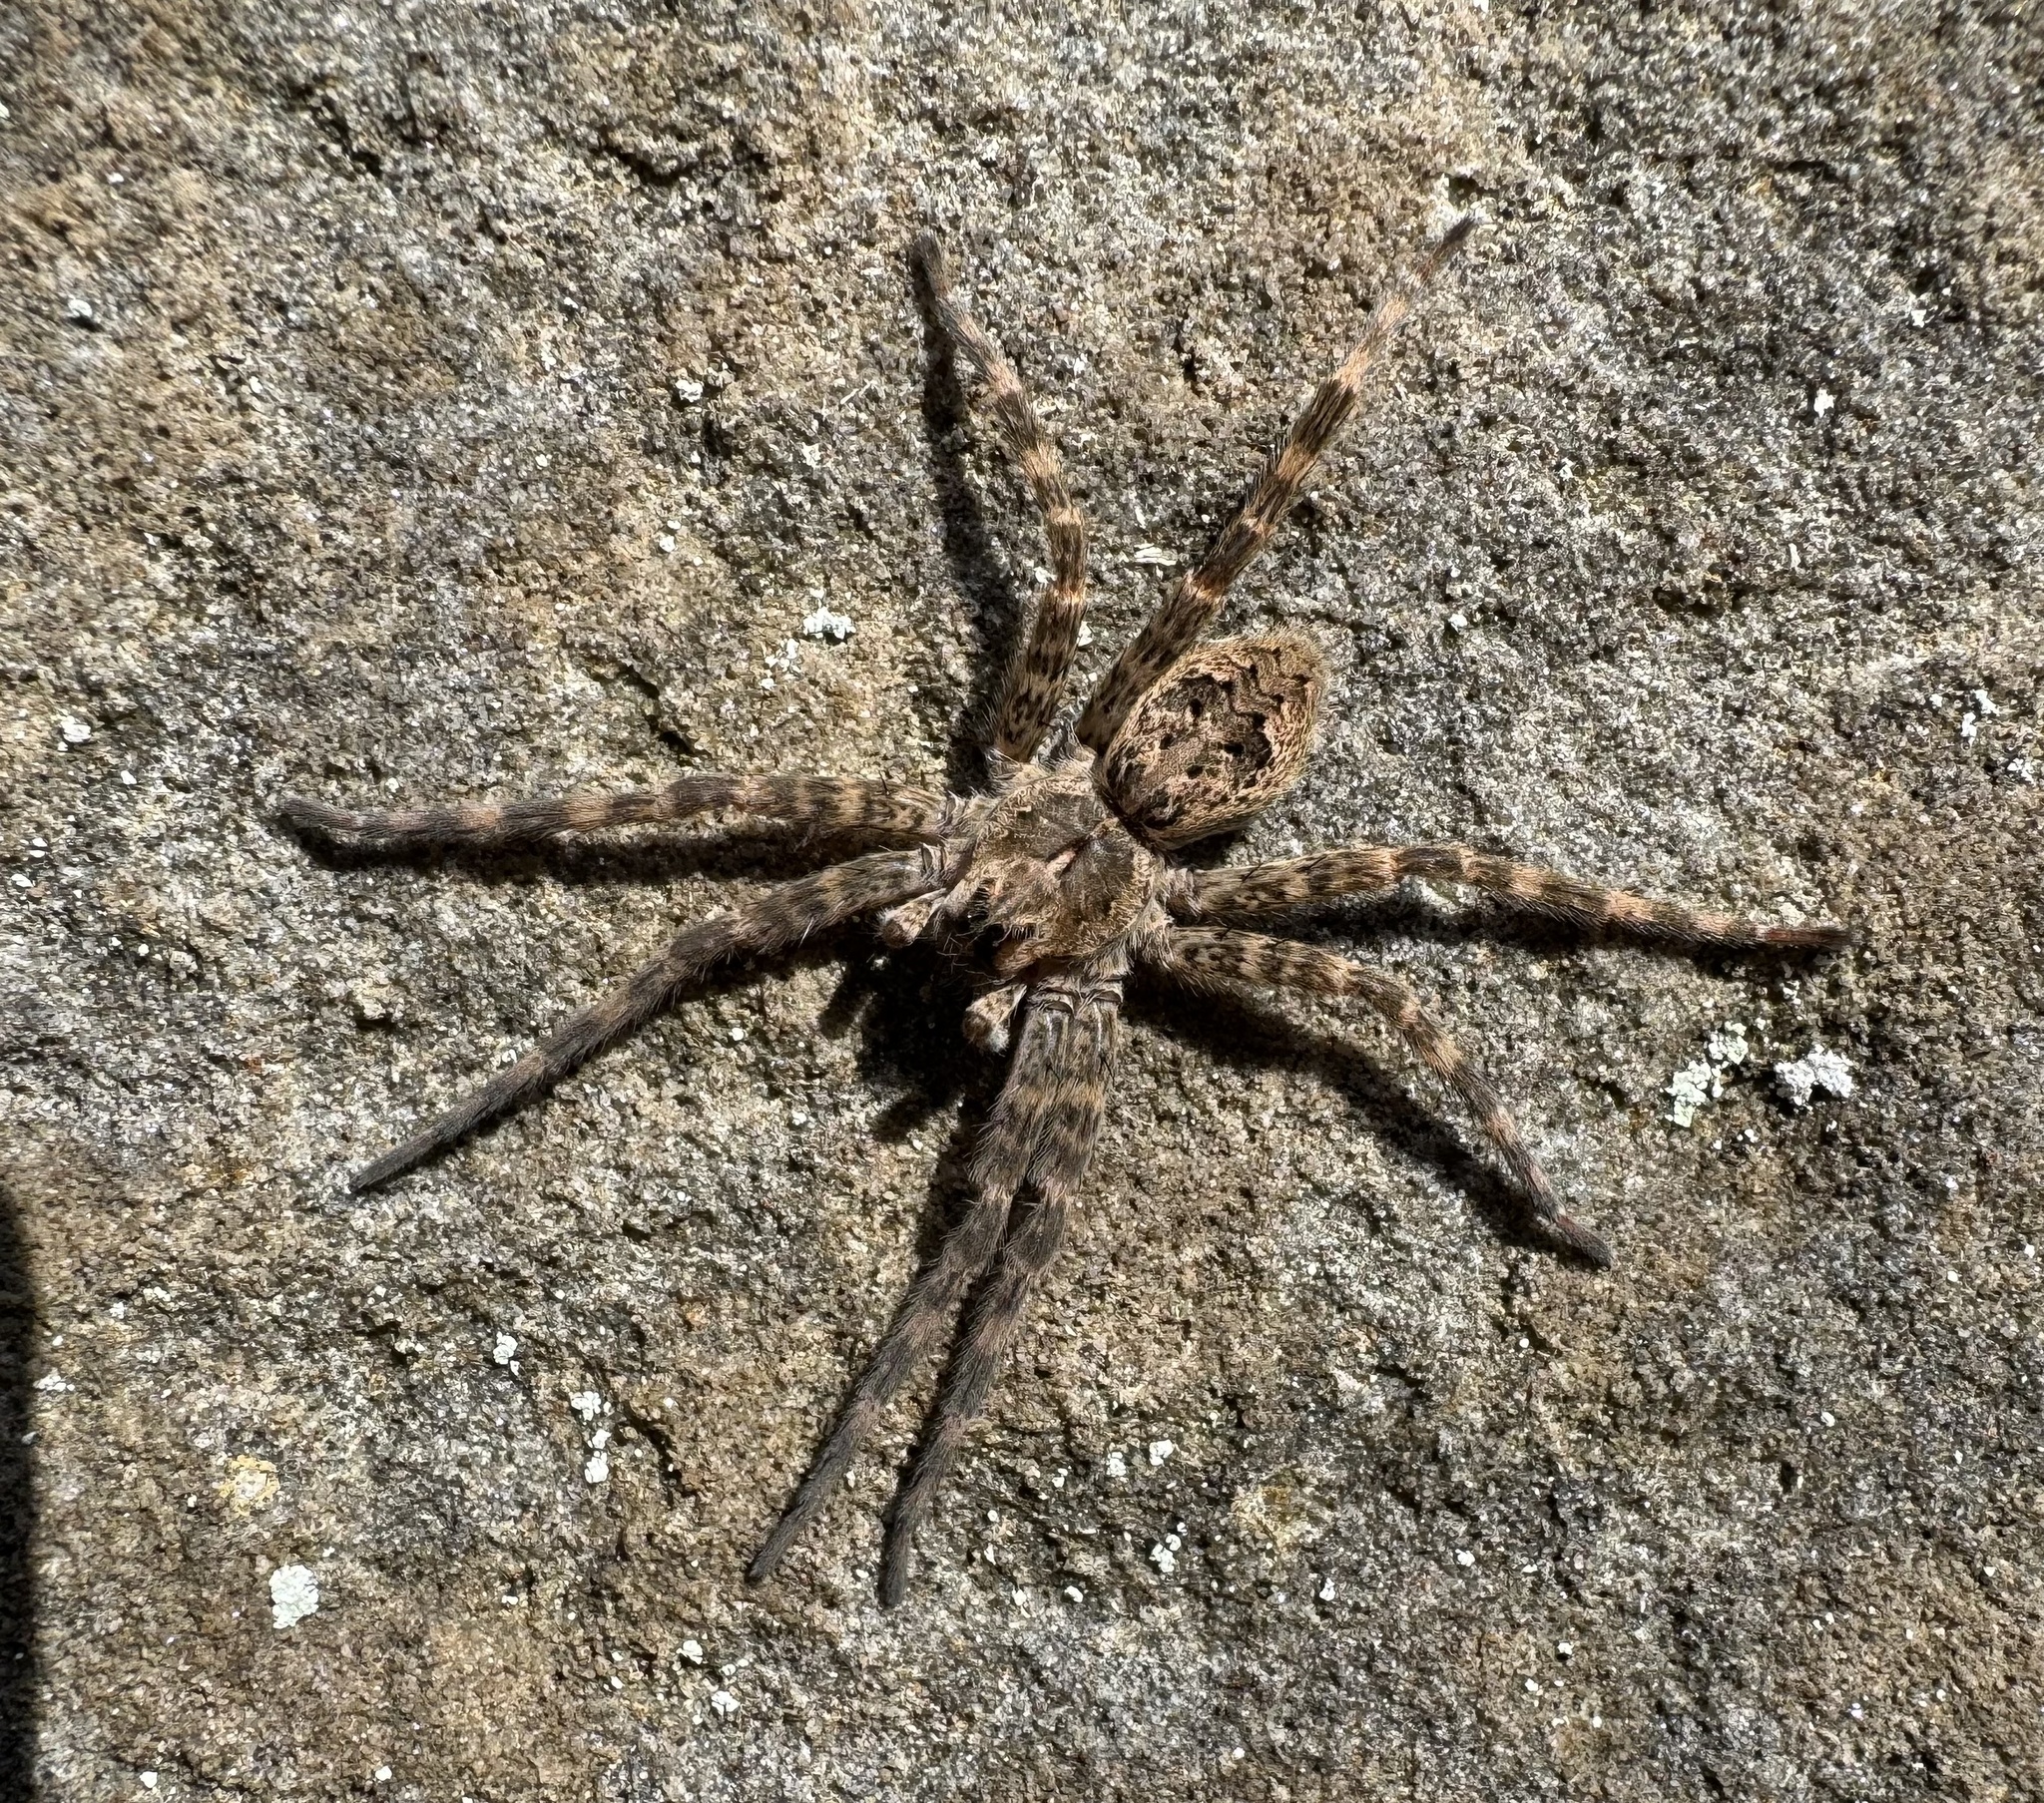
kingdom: Animalia
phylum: Arthropoda
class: Arachnida
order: Araneae
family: Pisauridae
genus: Dolomedes
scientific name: Dolomedes tenebrosus
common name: Dark fishing spider
